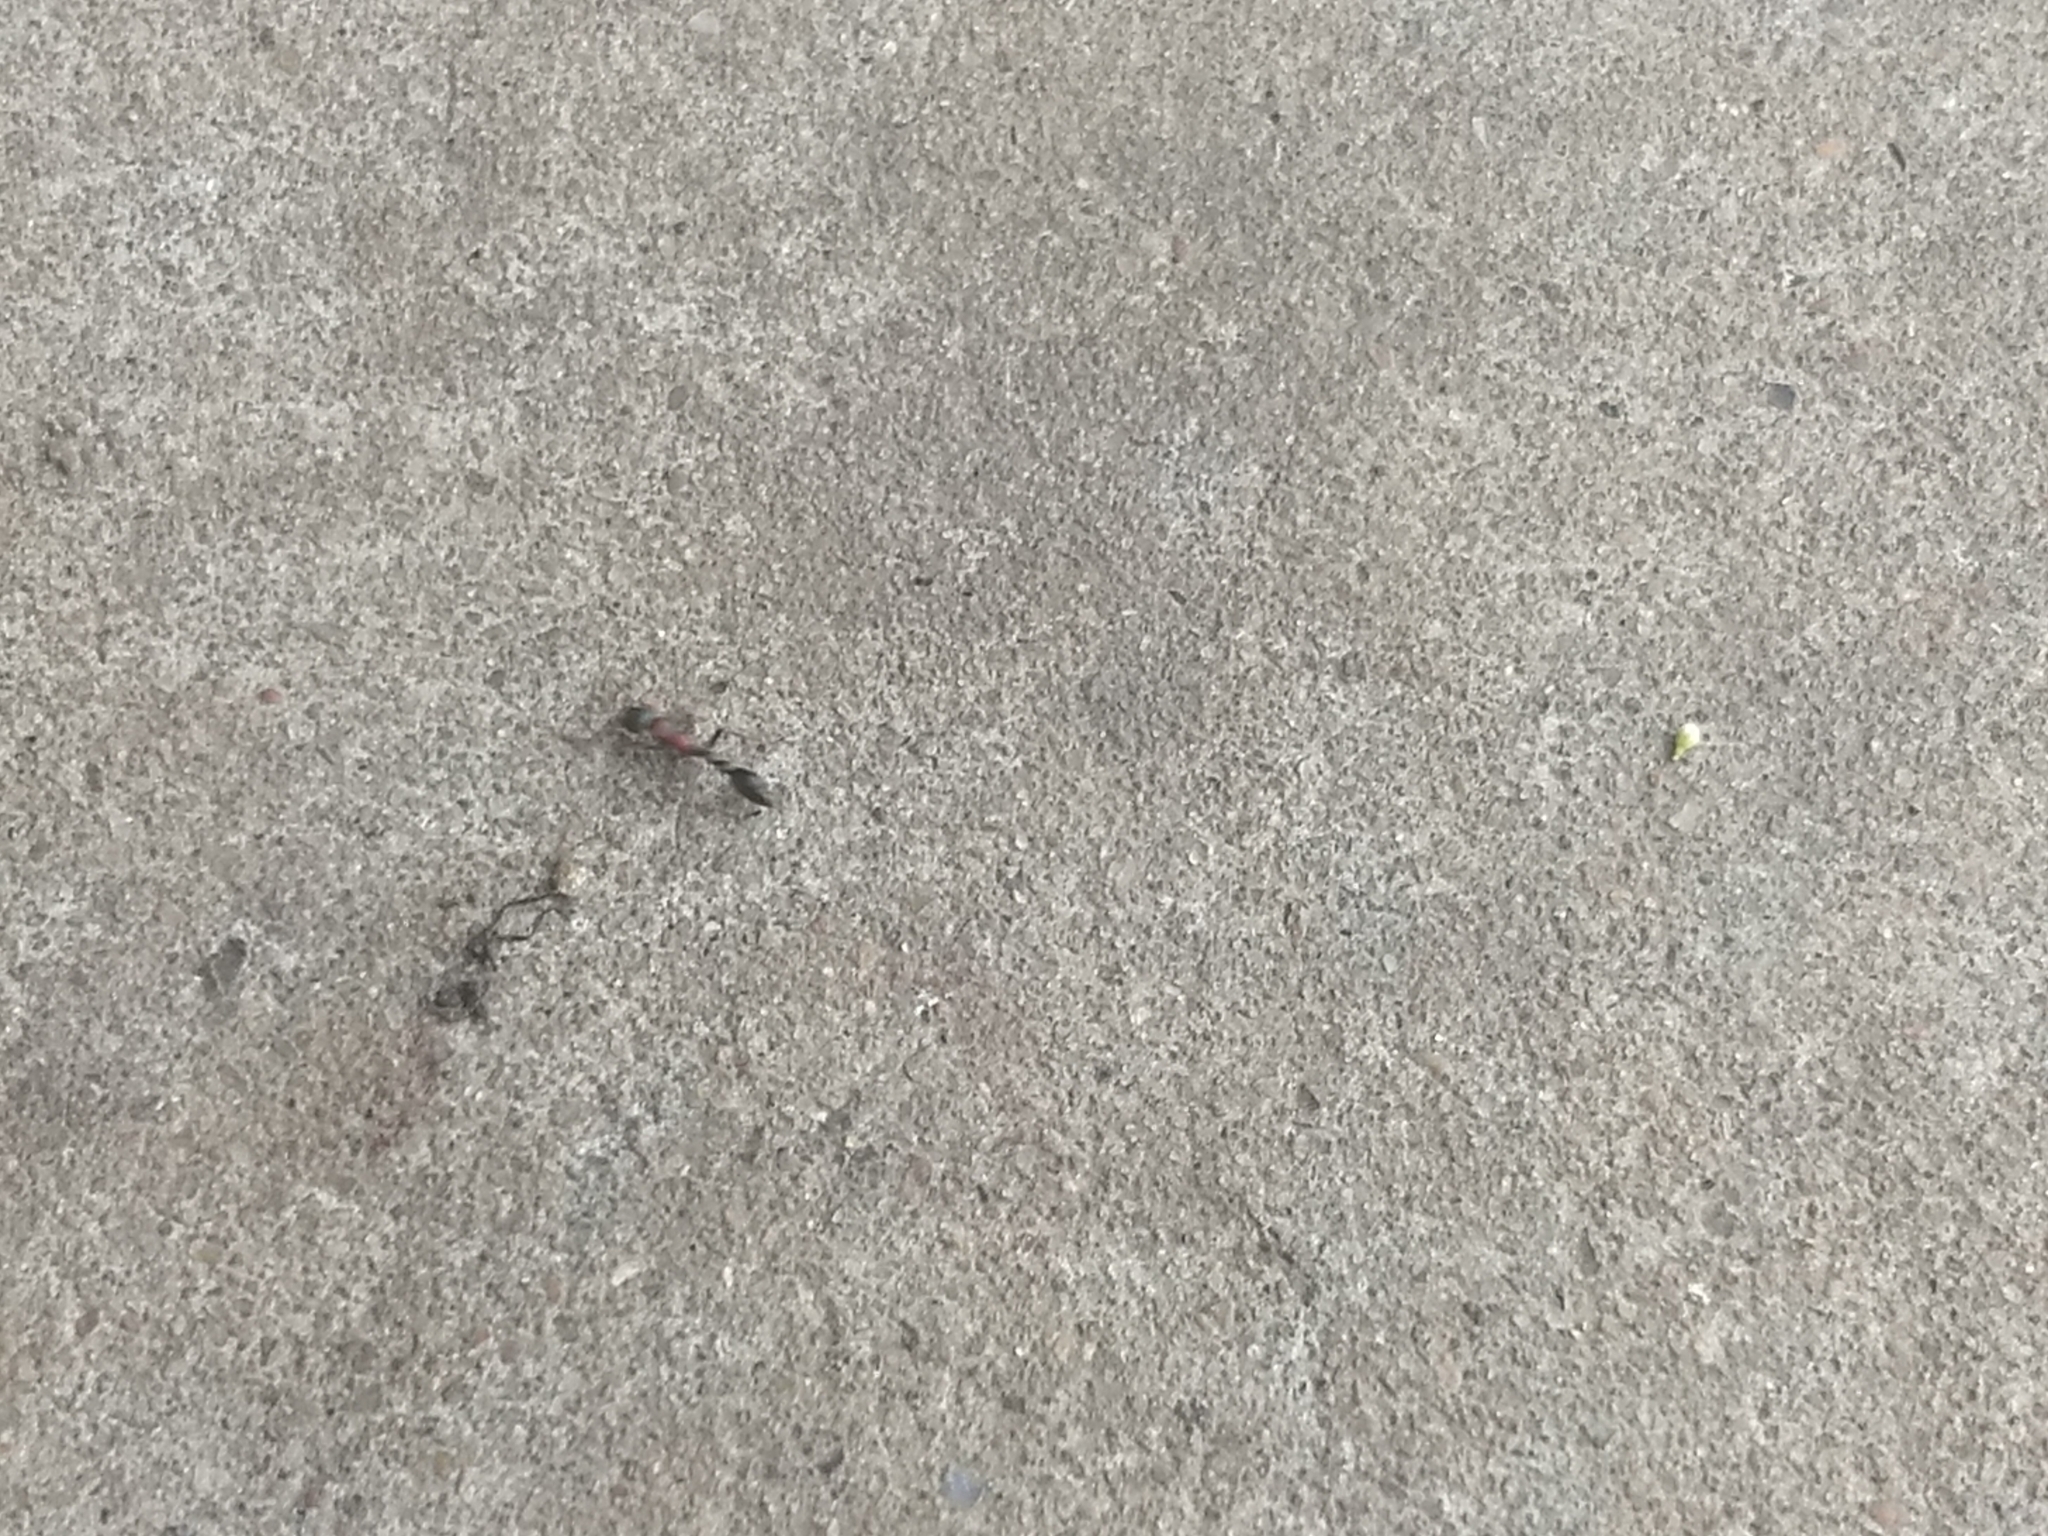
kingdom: Animalia
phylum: Arthropoda
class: Insecta
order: Hymenoptera
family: Formicidae
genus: Tetraponera
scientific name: Tetraponera rufonigra
